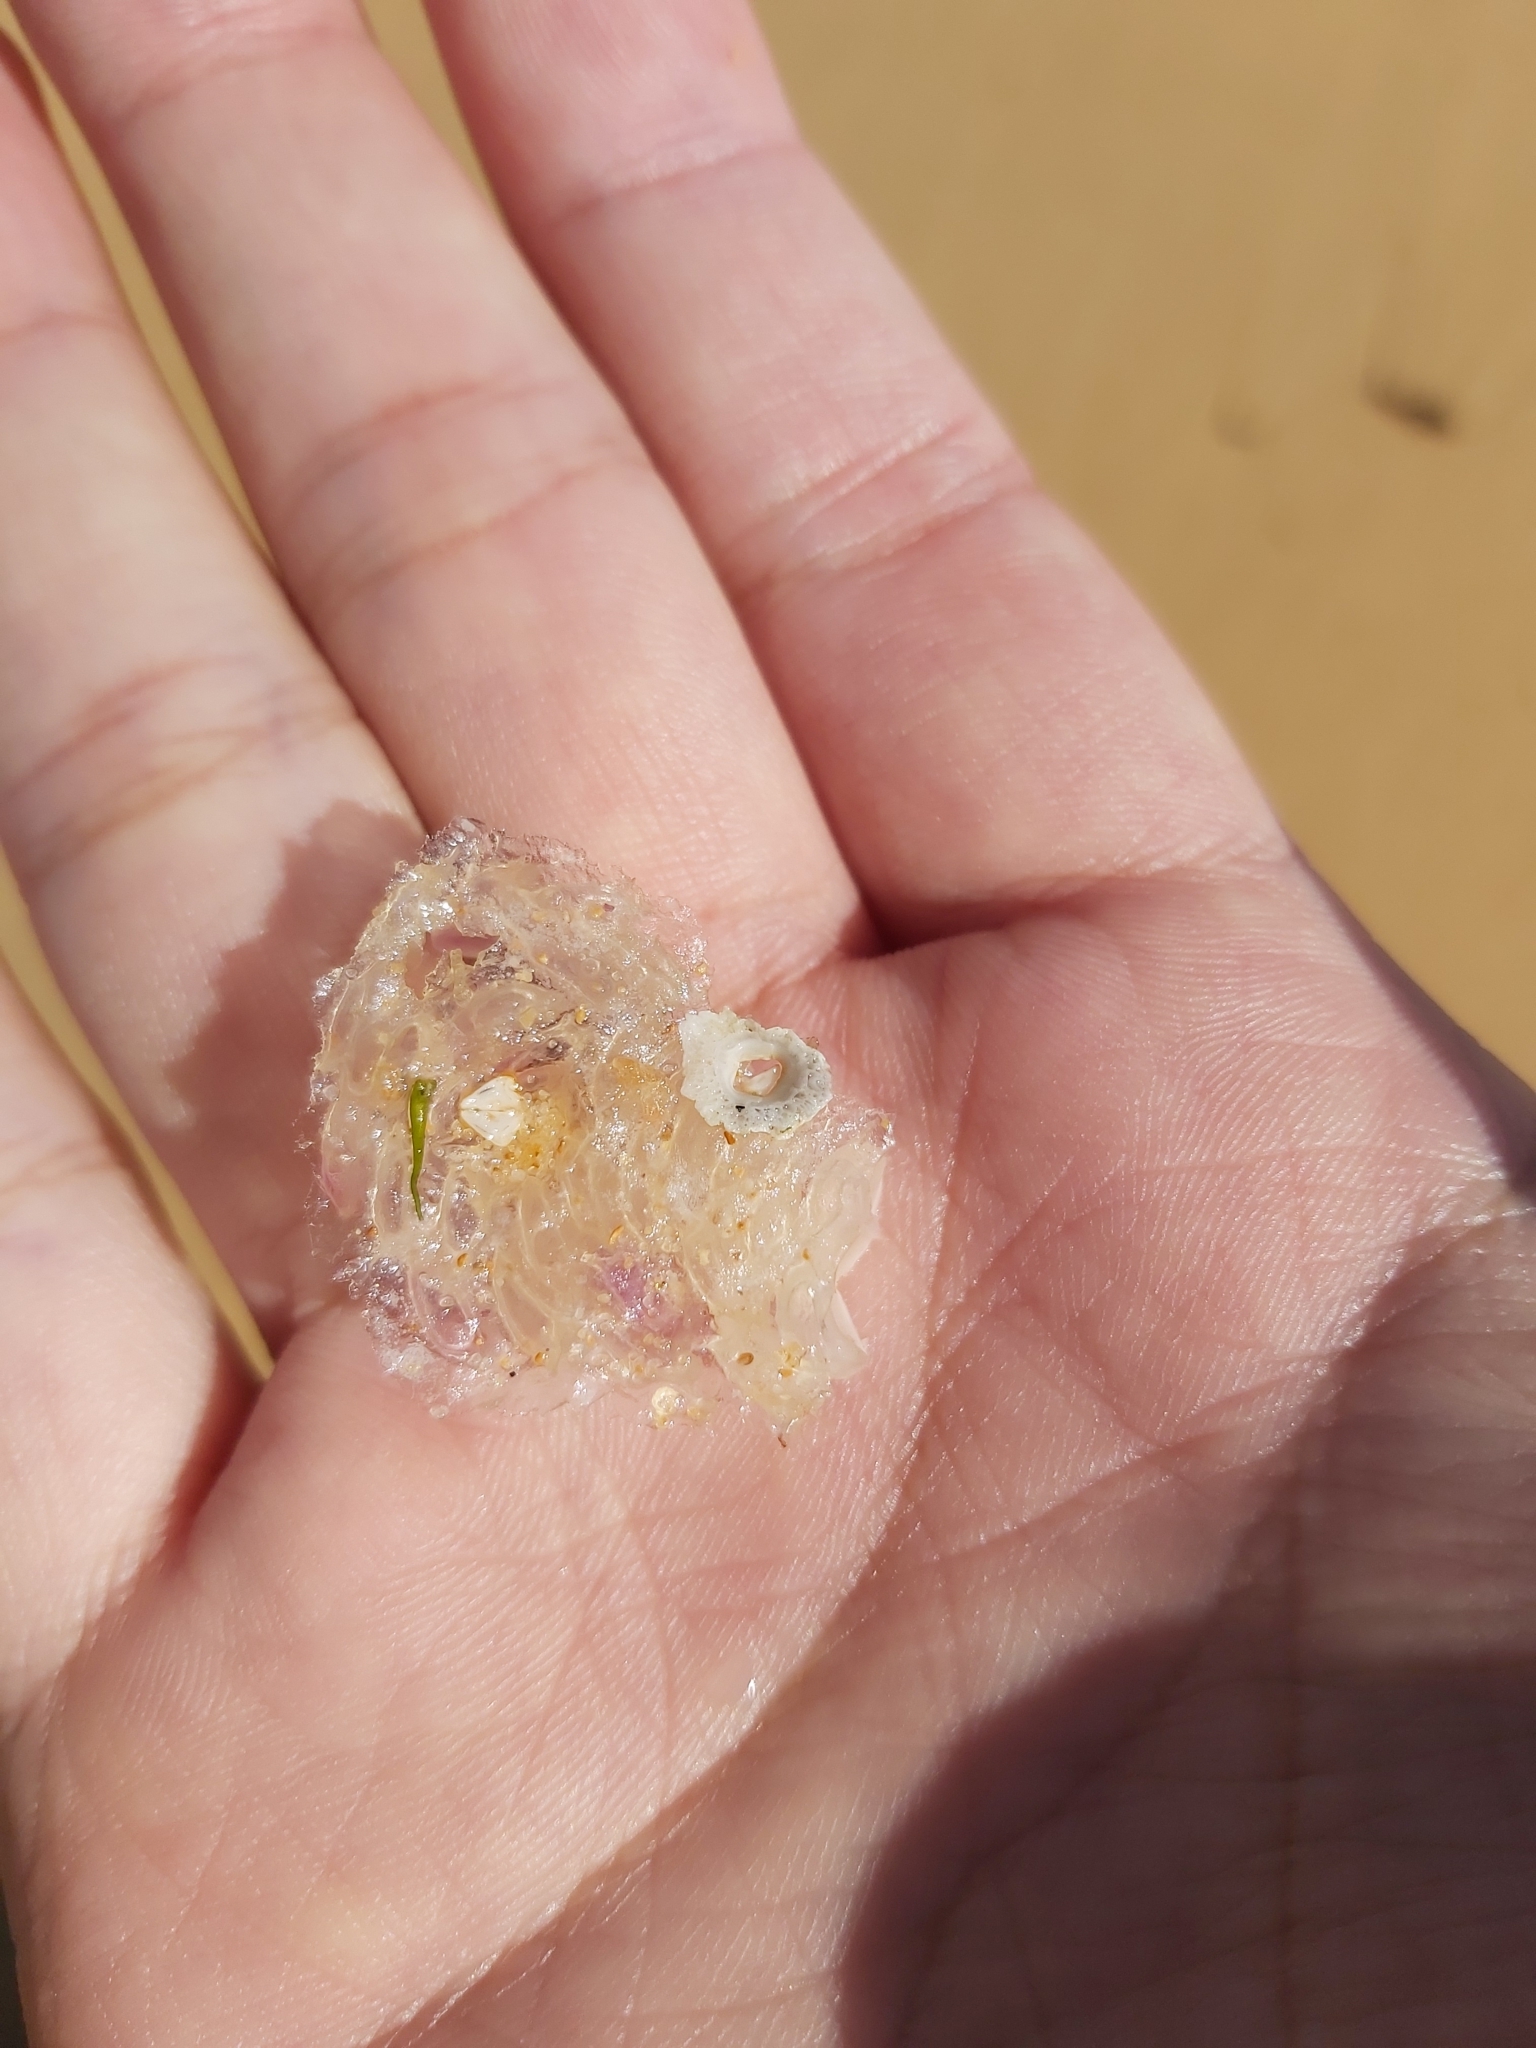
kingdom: Animalia
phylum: Mollusca
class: Gastropoda
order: Neogastropoda
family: Muricidae
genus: Dicathais
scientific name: Dicathais orbita
